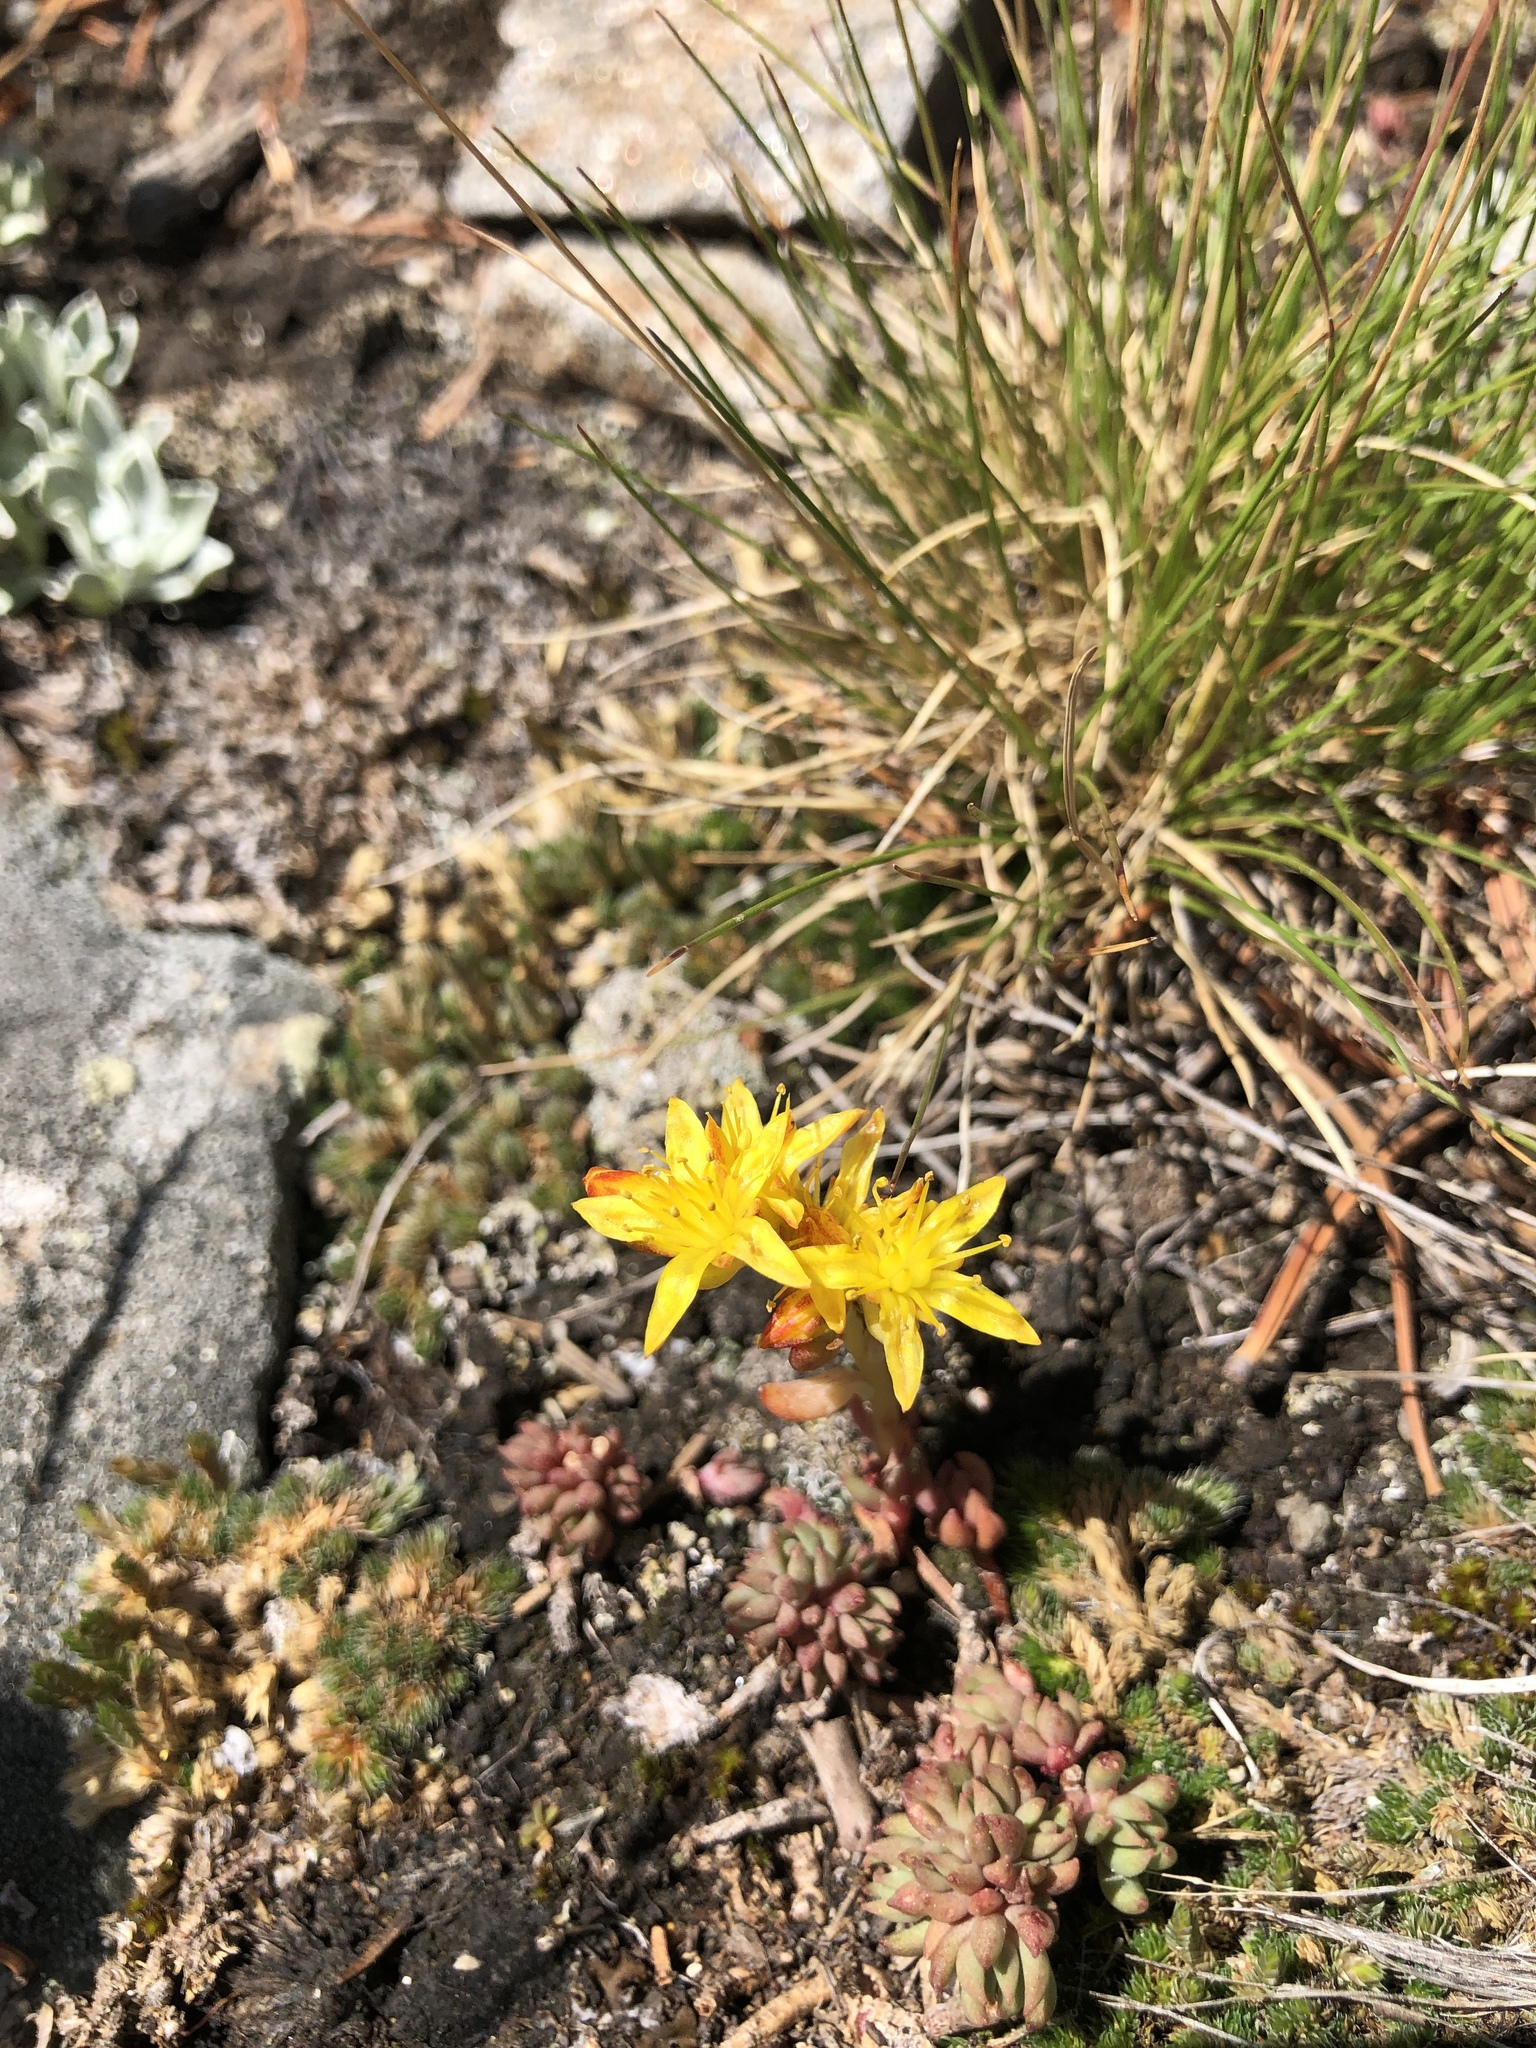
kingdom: Plantae
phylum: Tracheophyta
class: Magnoliopsida
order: Saxifragales
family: Crassulaceae
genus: Sedum
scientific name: Sedum lanceolatum
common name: Common stonecrop
